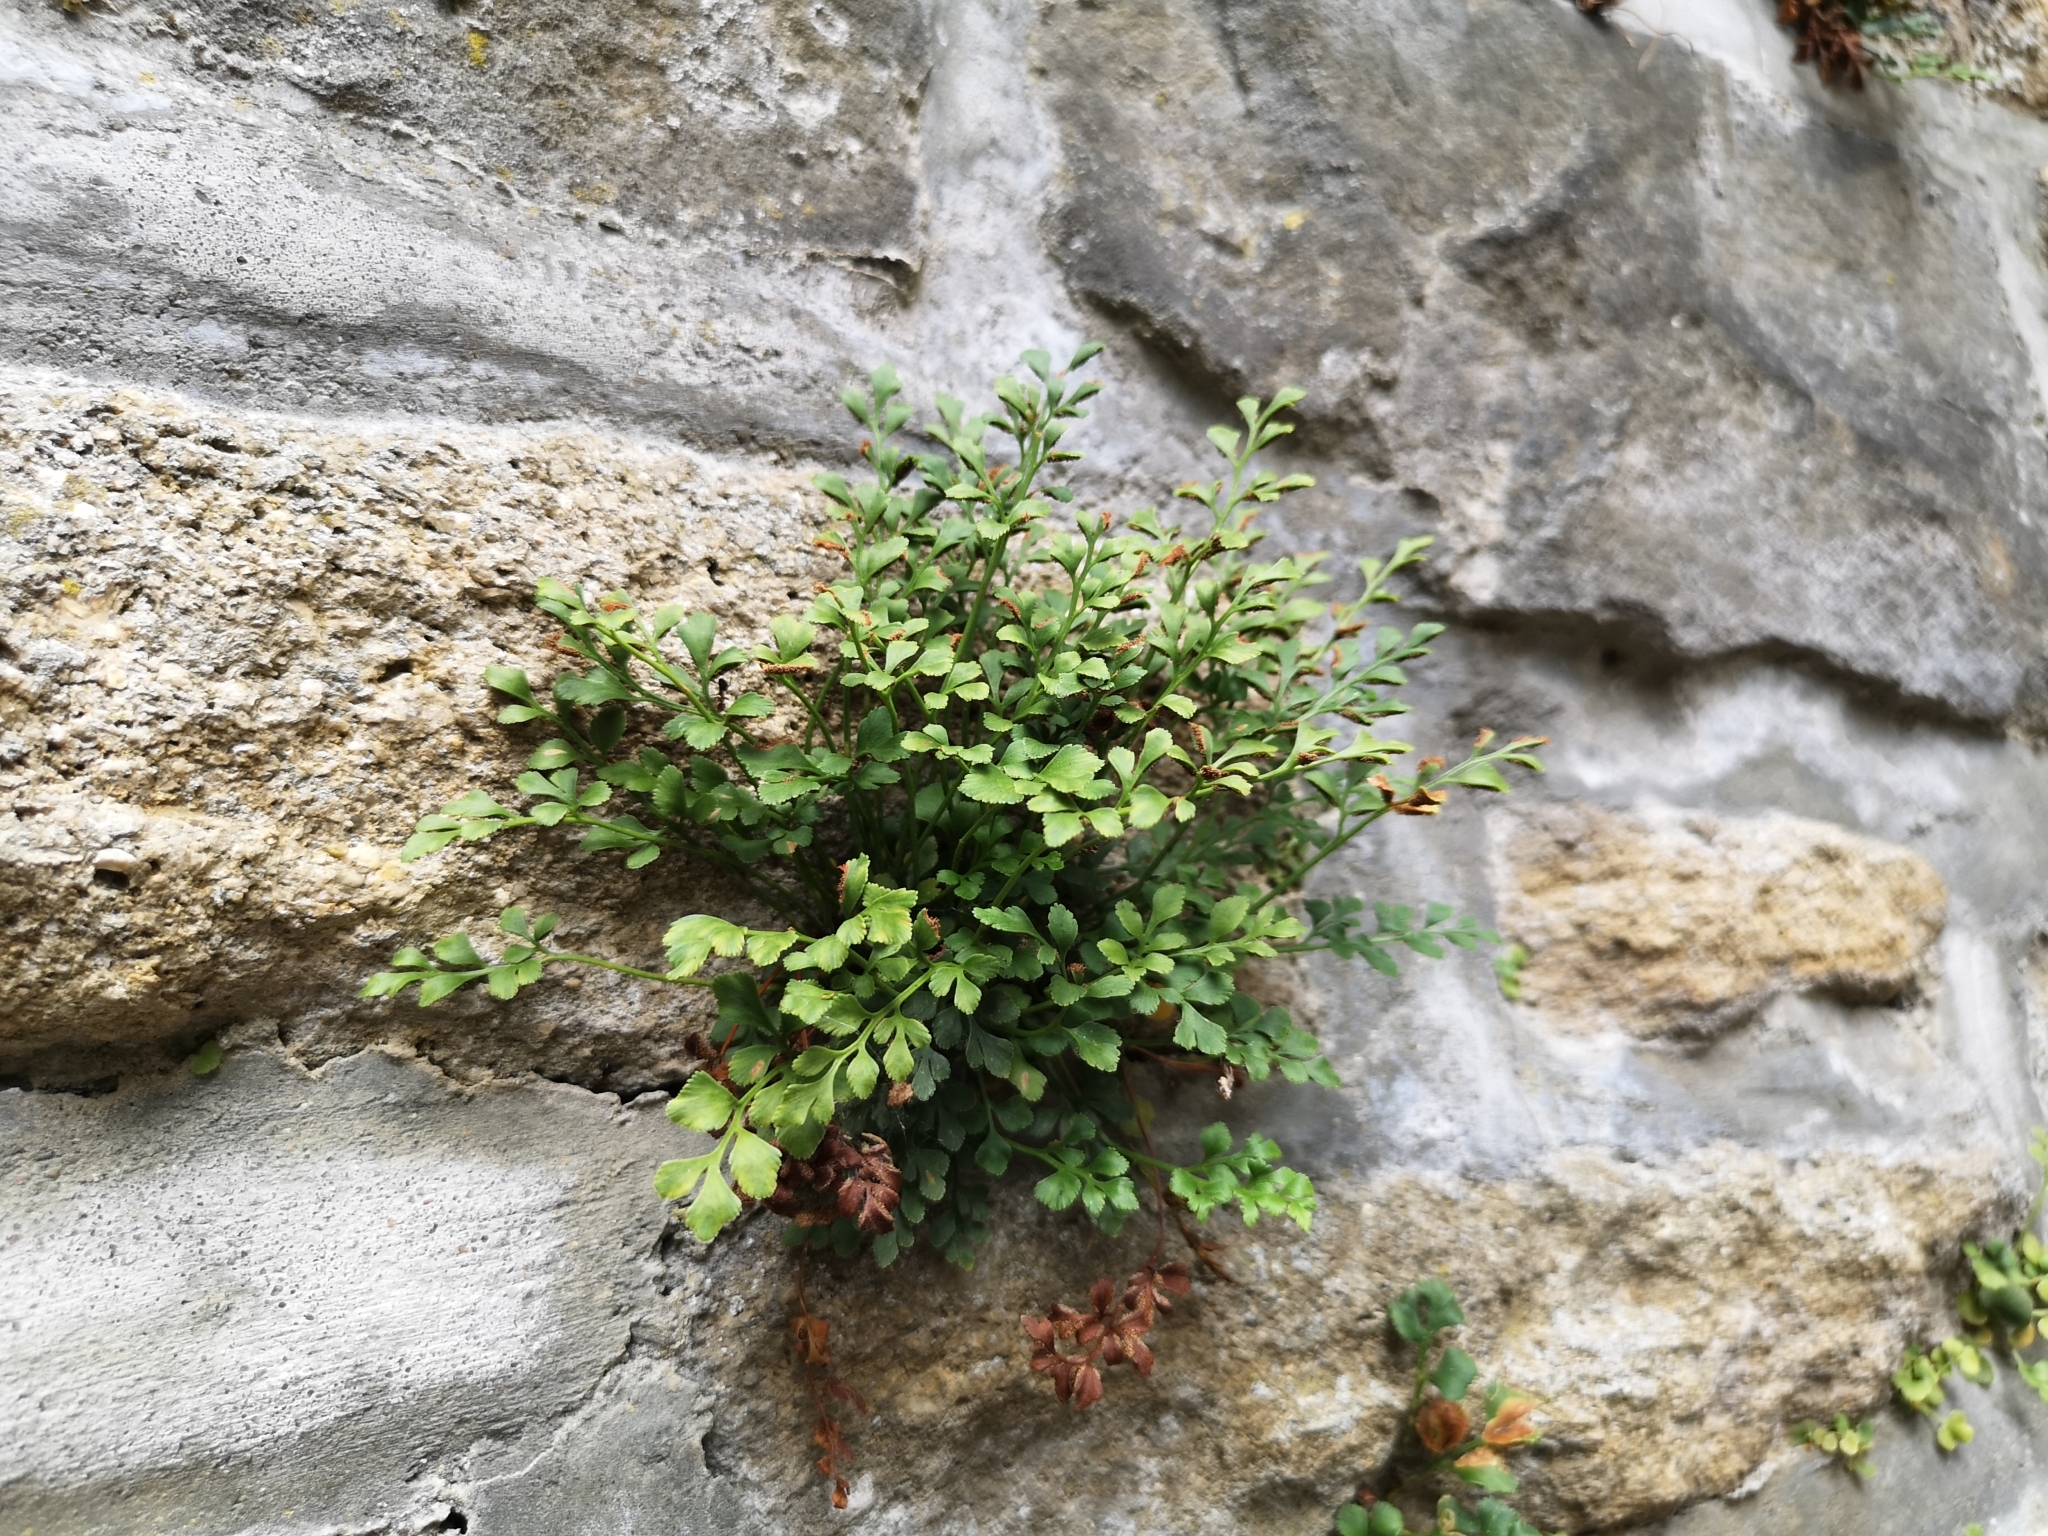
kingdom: Plantae
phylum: Tracheophyta
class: Polypodiopsida
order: Polypodiales
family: Aspleniaceae
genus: Asplenium
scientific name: Asplenium ruta-muraria
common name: Wall-rue
